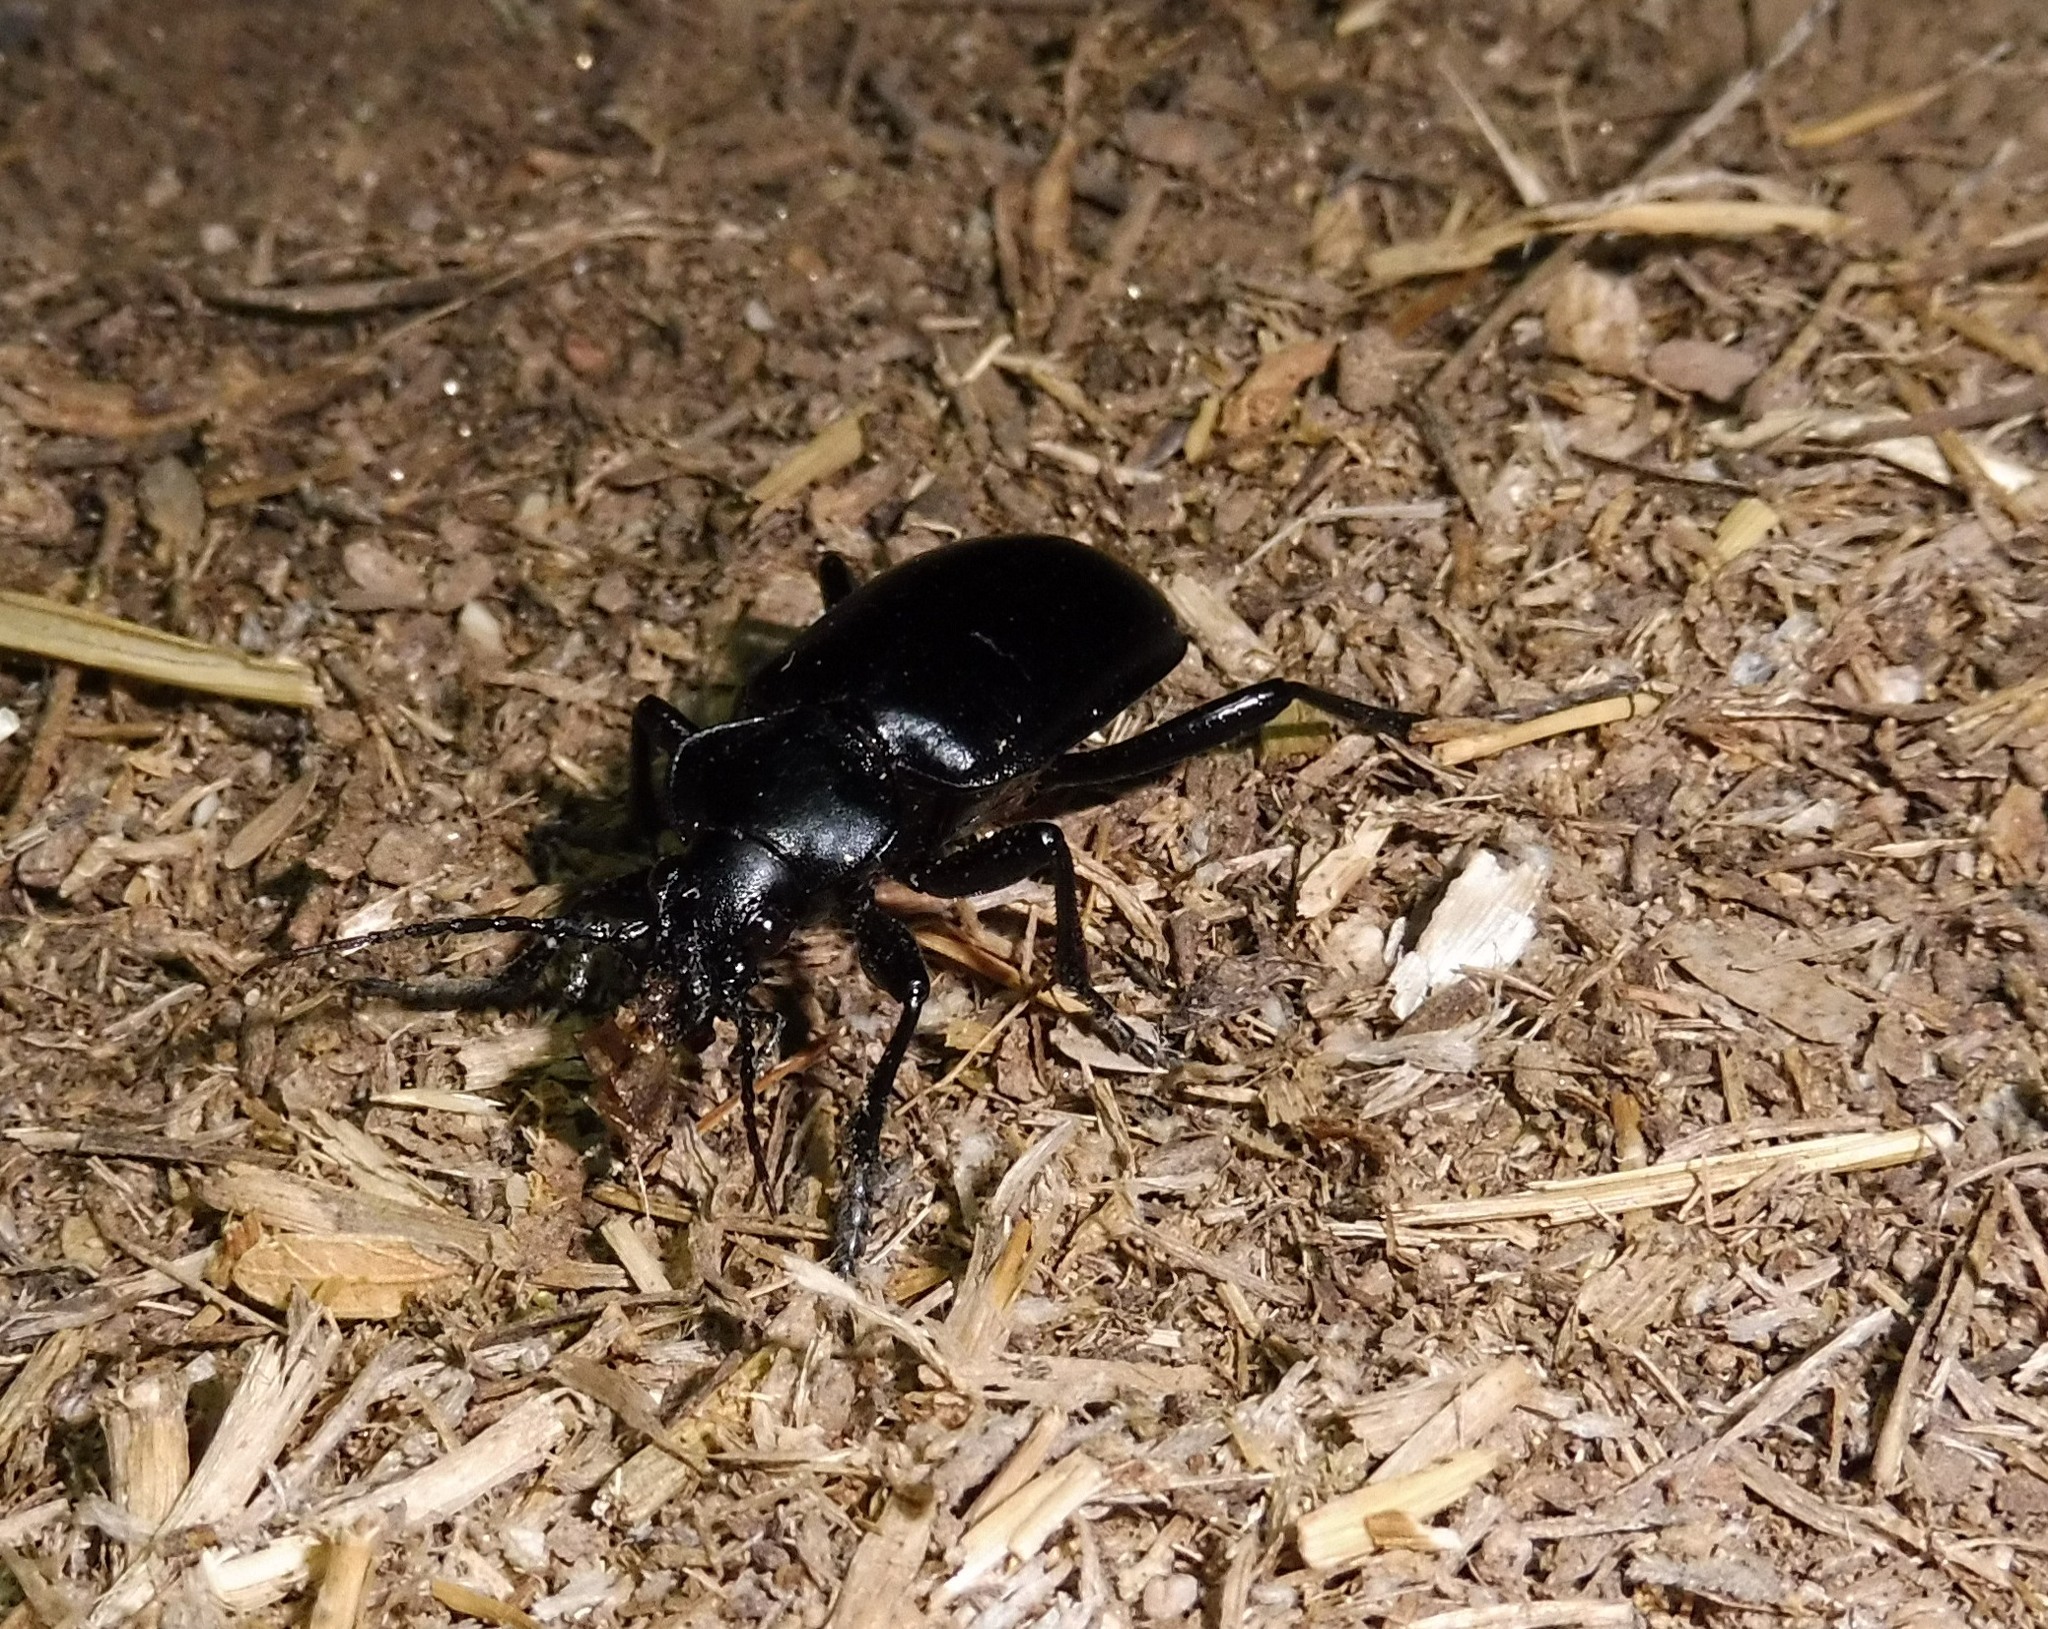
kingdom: Animalia
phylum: Arthropoda
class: Insecta
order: Coleoptera
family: Carabidae
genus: Calosoma
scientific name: Calosoma peregrinator
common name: Ground beetle
